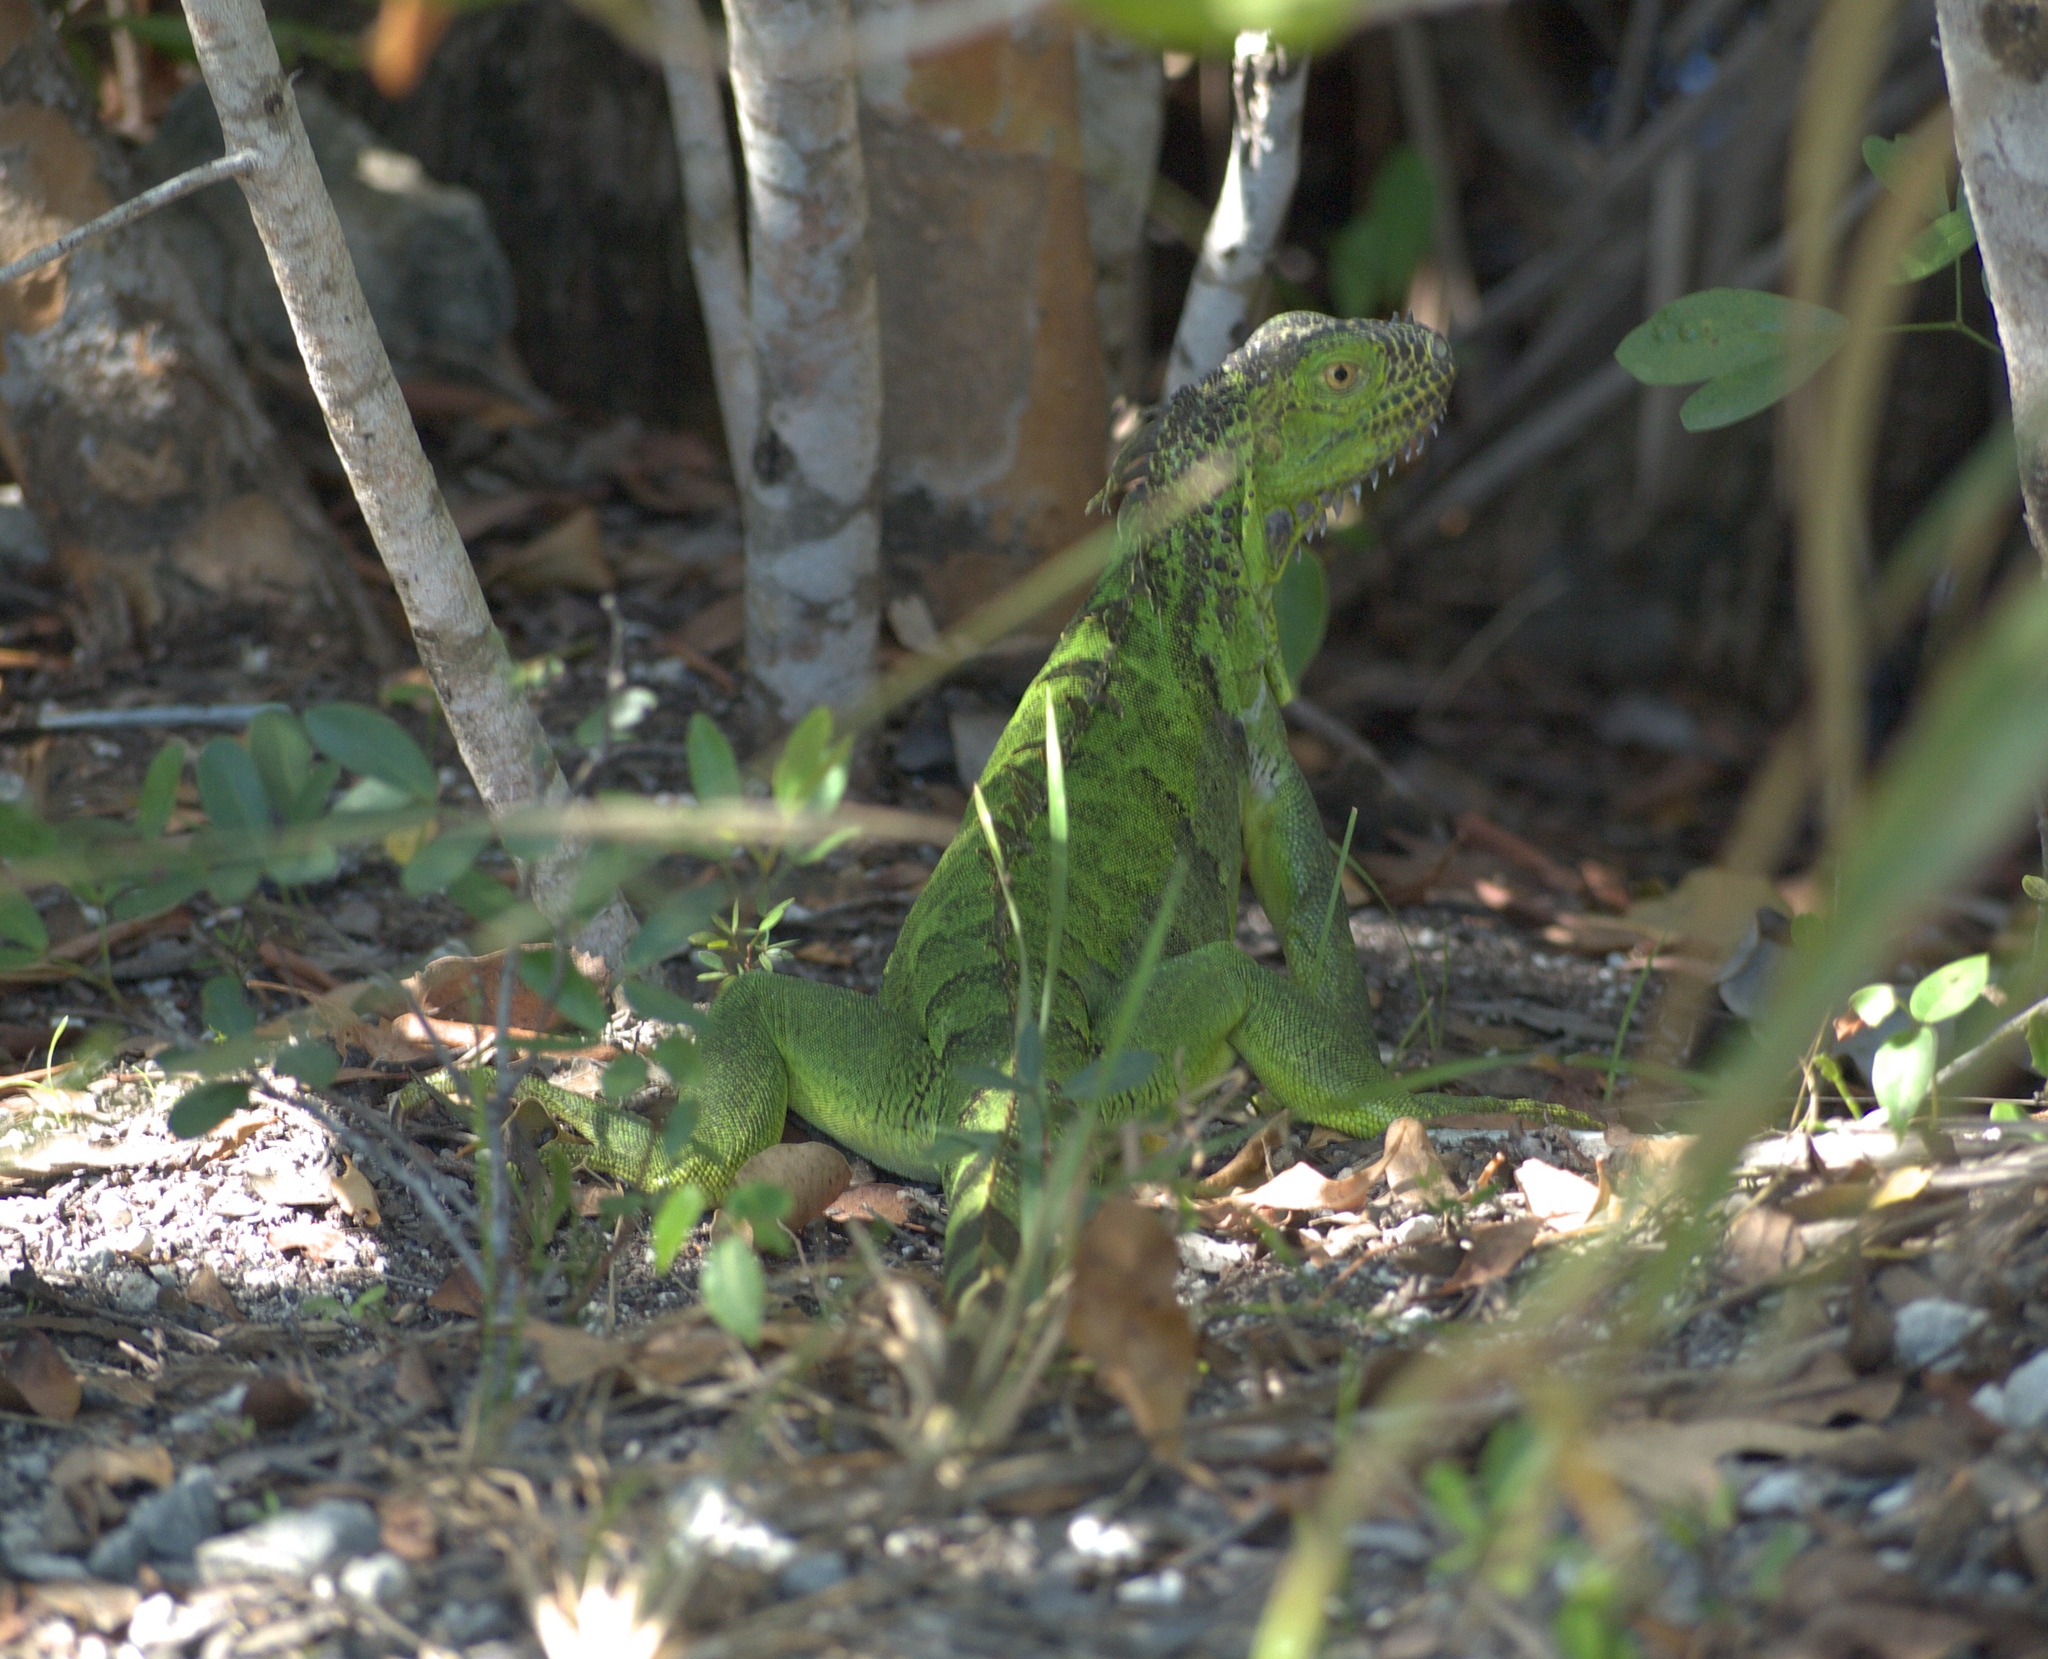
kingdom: Animalia
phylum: Chordata
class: Squamata
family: Iguanidae
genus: Iguana
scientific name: Iguana iguana
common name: Green iguana
